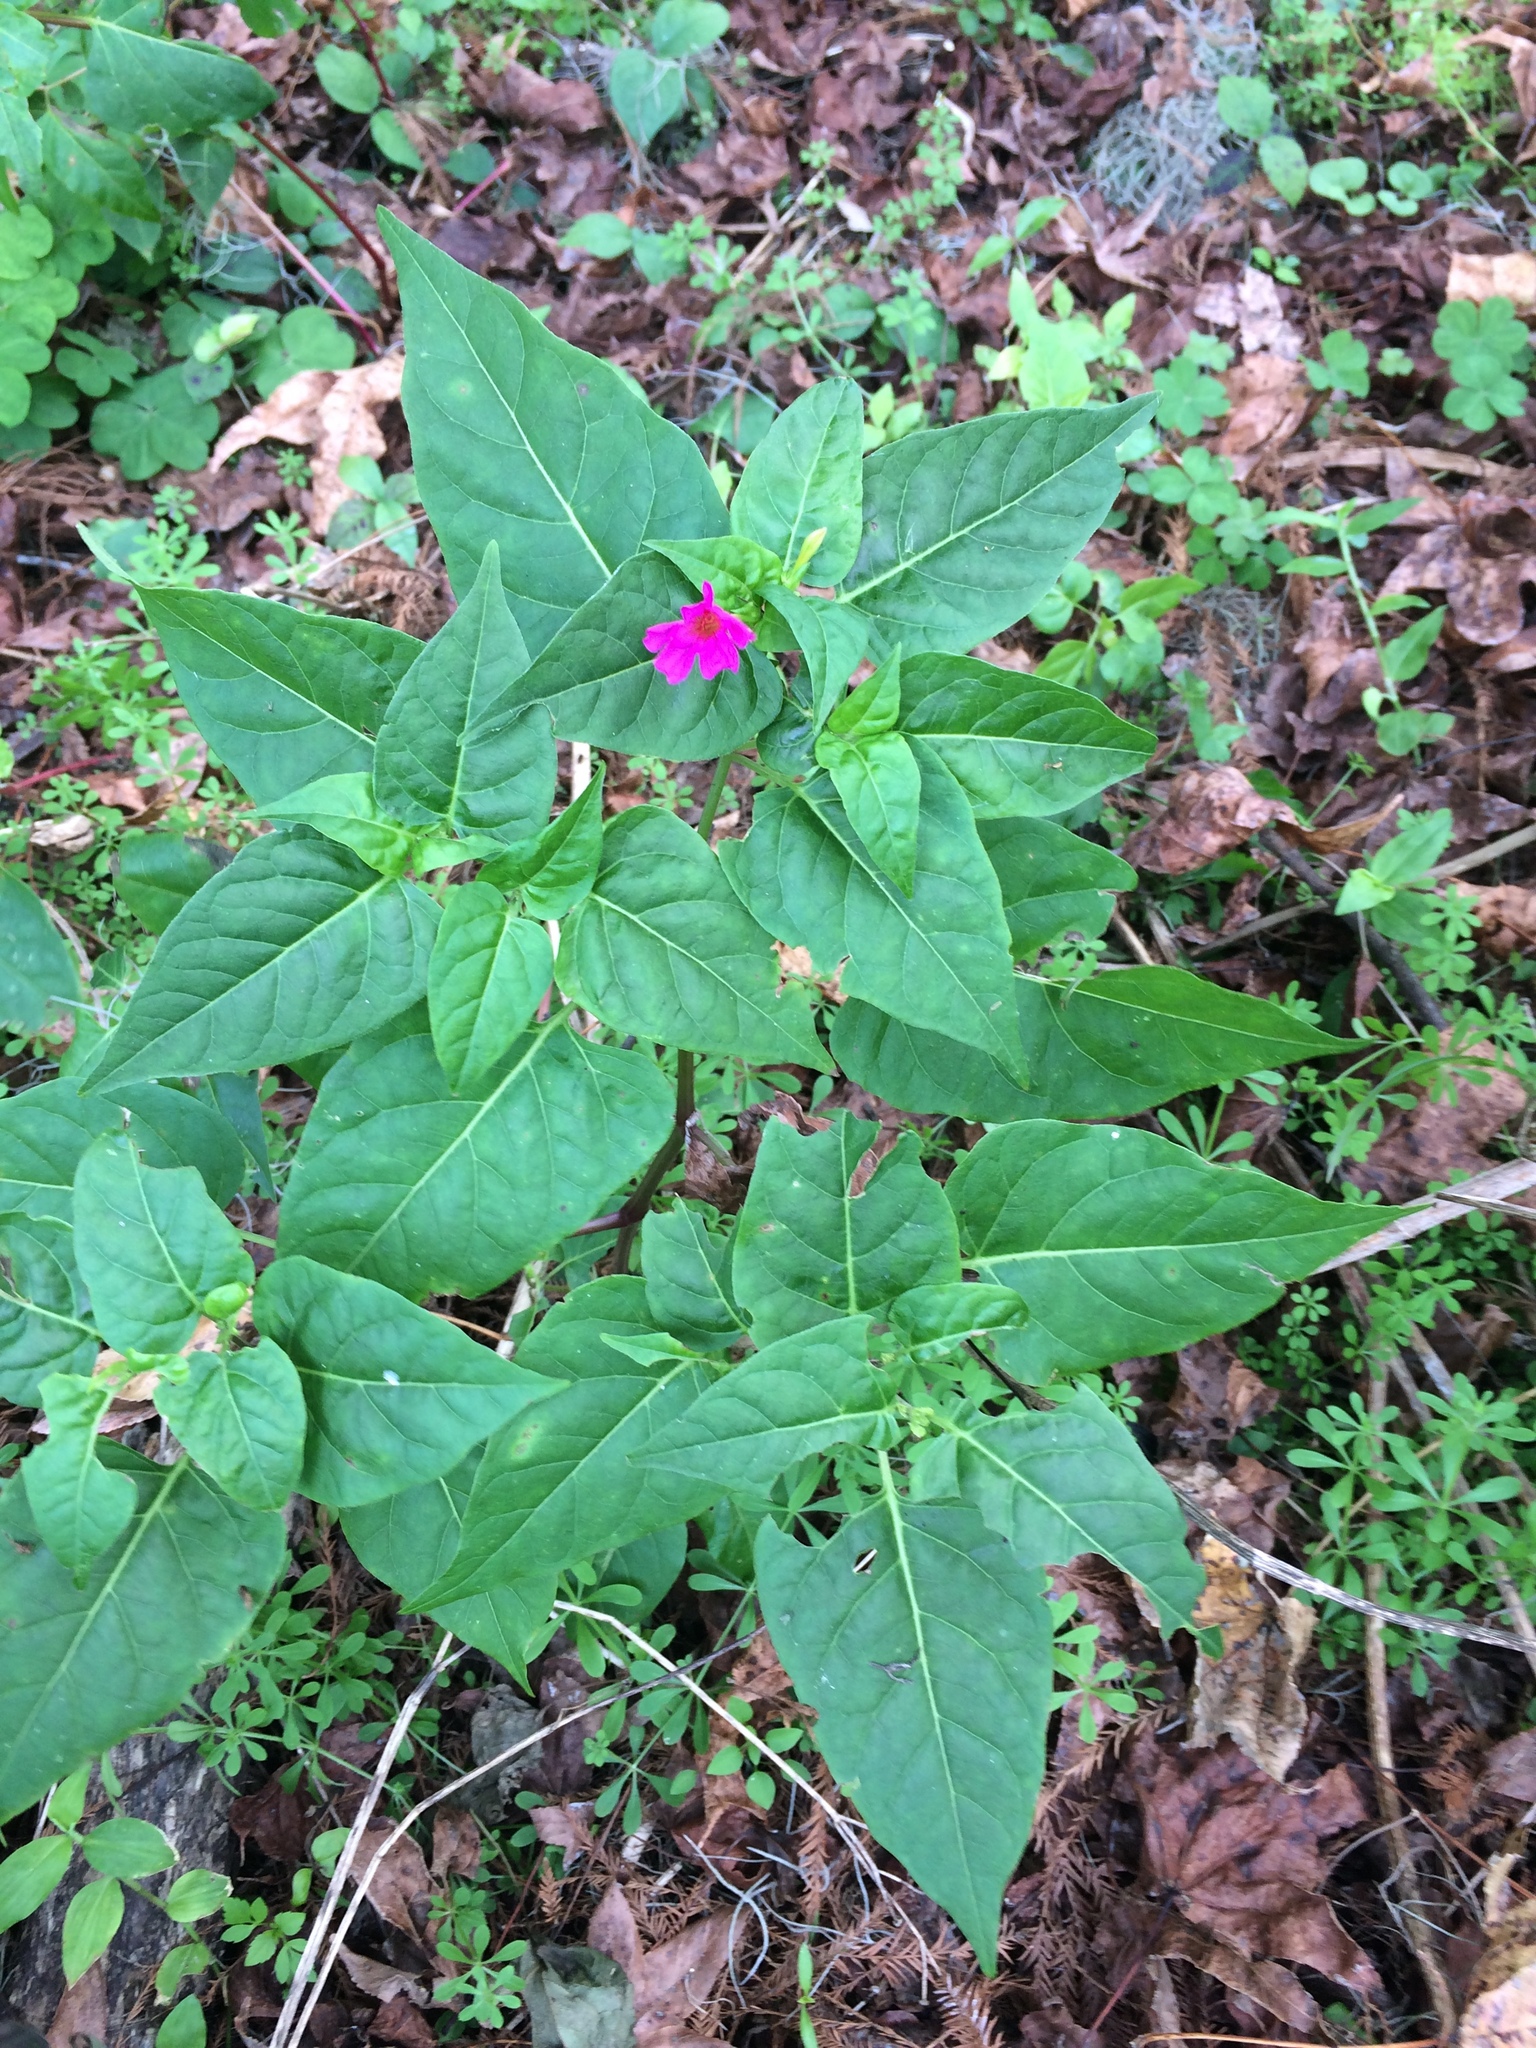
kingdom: Plantae
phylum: Tracheophyta
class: Magnoliopsida
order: Caryophyllales
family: Nyctaginaceae
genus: Mirabilis
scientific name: Mirabilis nyctaginea
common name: Umbrella wort
